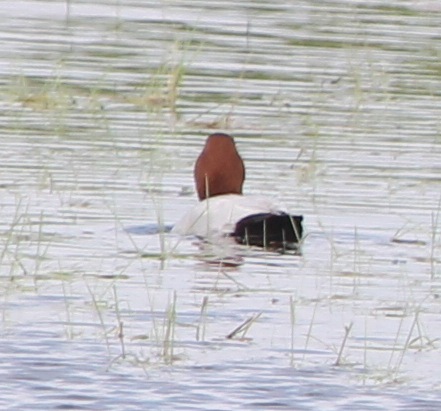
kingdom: Animalia
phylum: Chordata
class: Aves
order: Anseriformes
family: Anatidae
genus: Aythya
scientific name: Aythya ferina
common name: Common pochard
